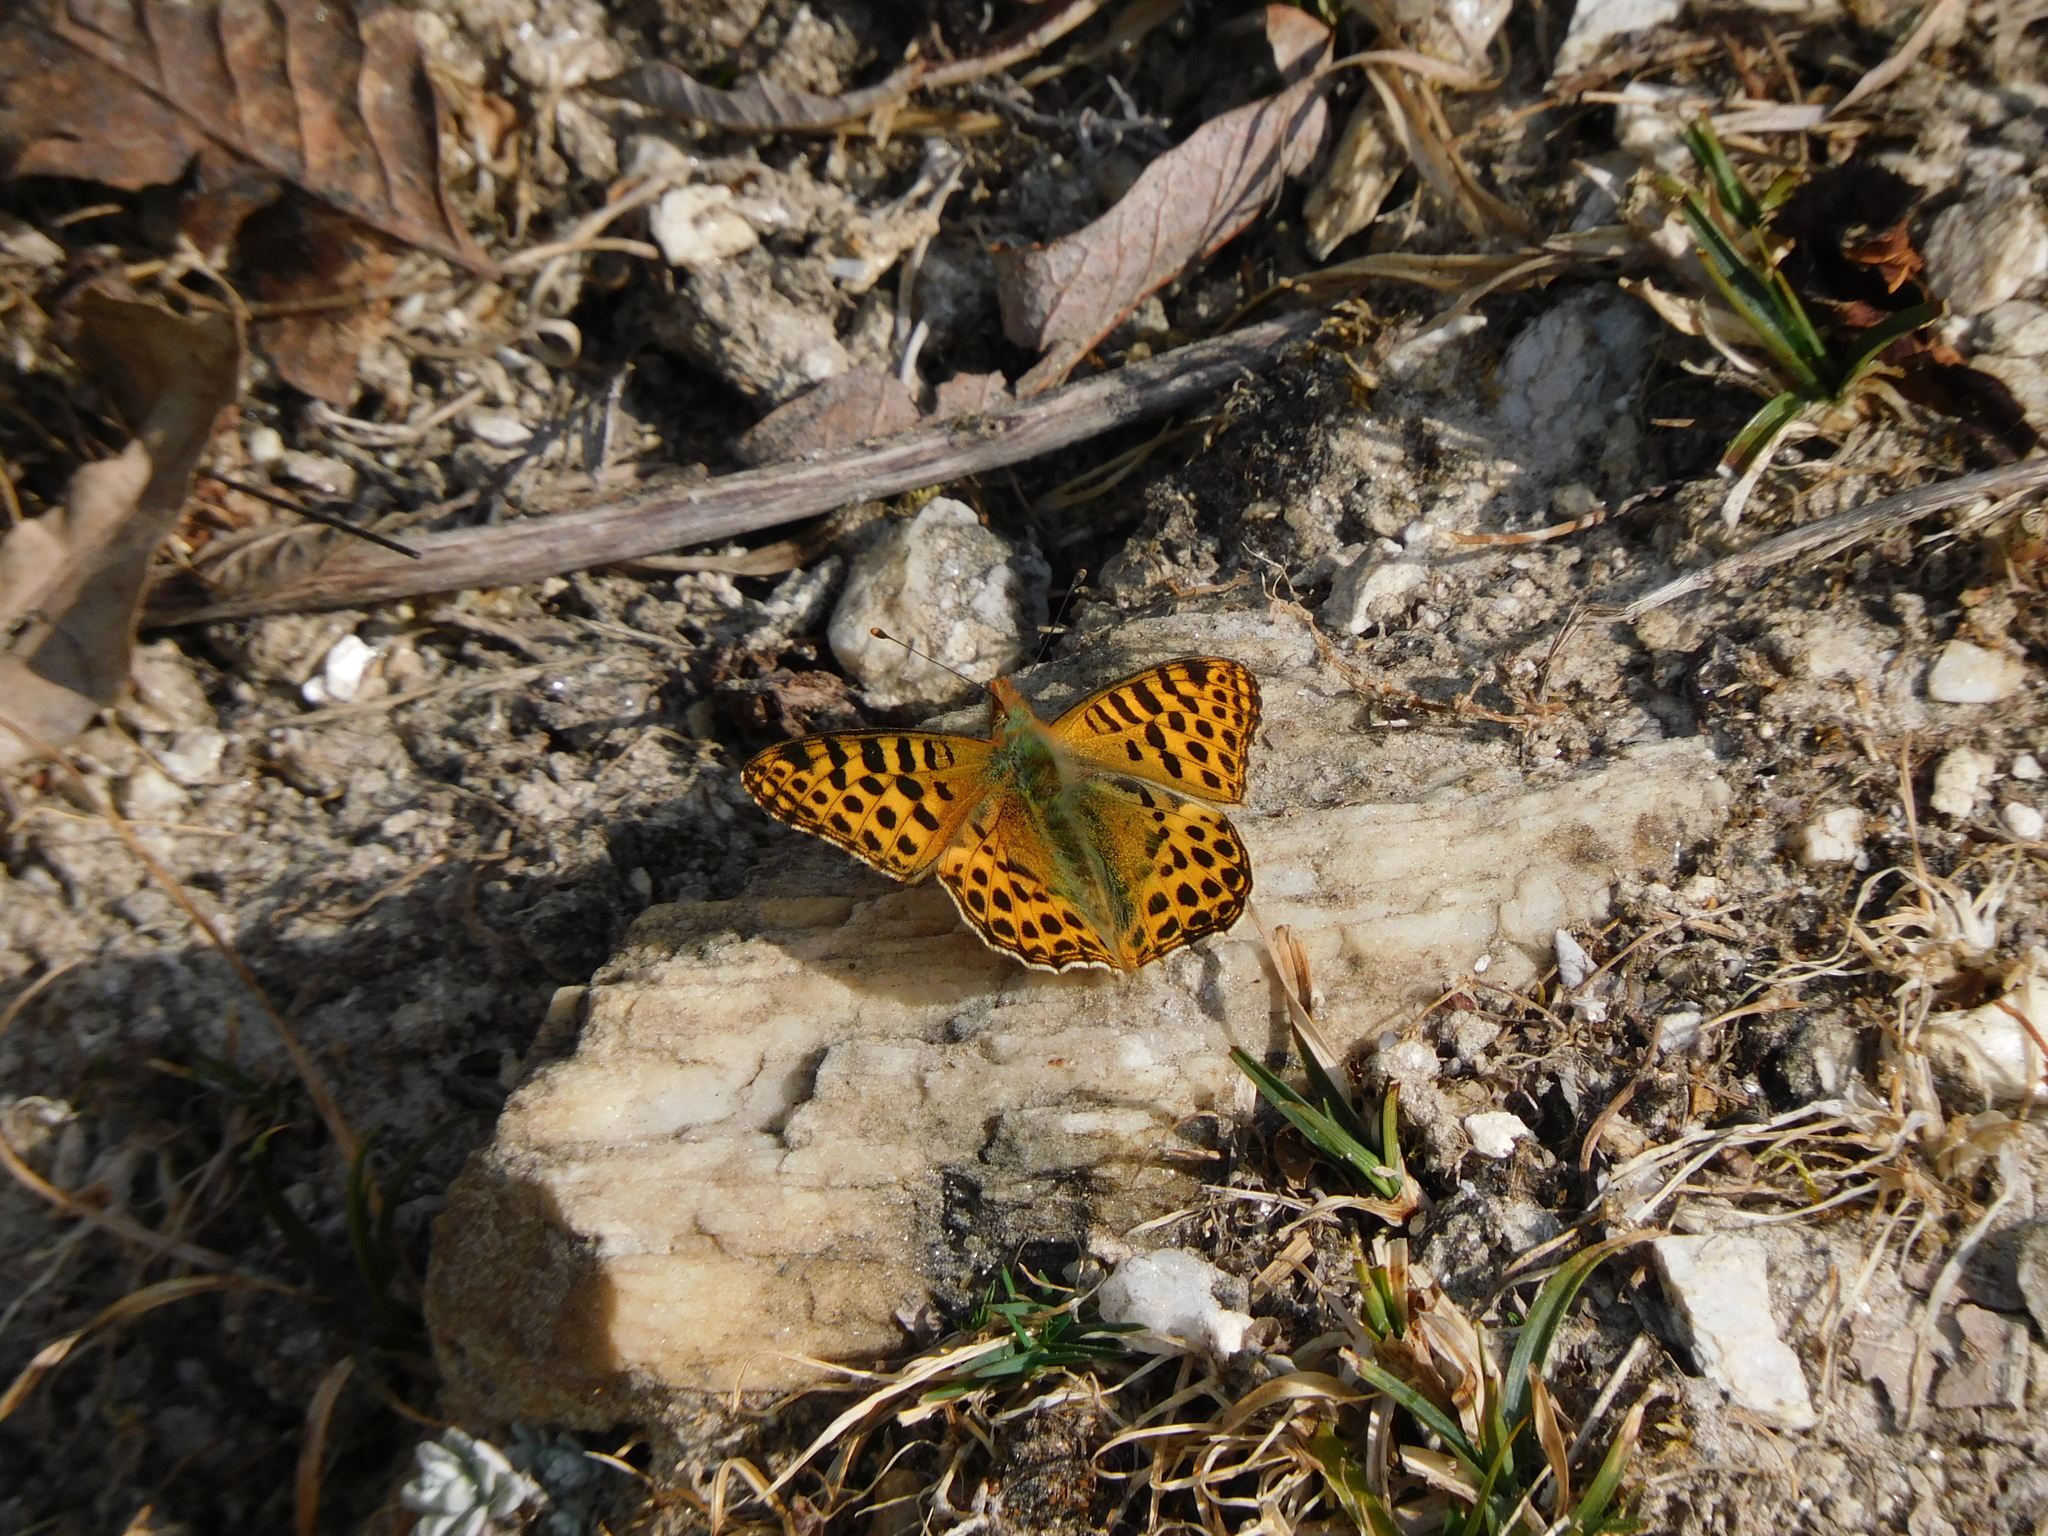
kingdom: Animalia
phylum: Arthropoda
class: Insecta
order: Lepidoptera
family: Nymphalidae
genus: Issoria
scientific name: Issoria
